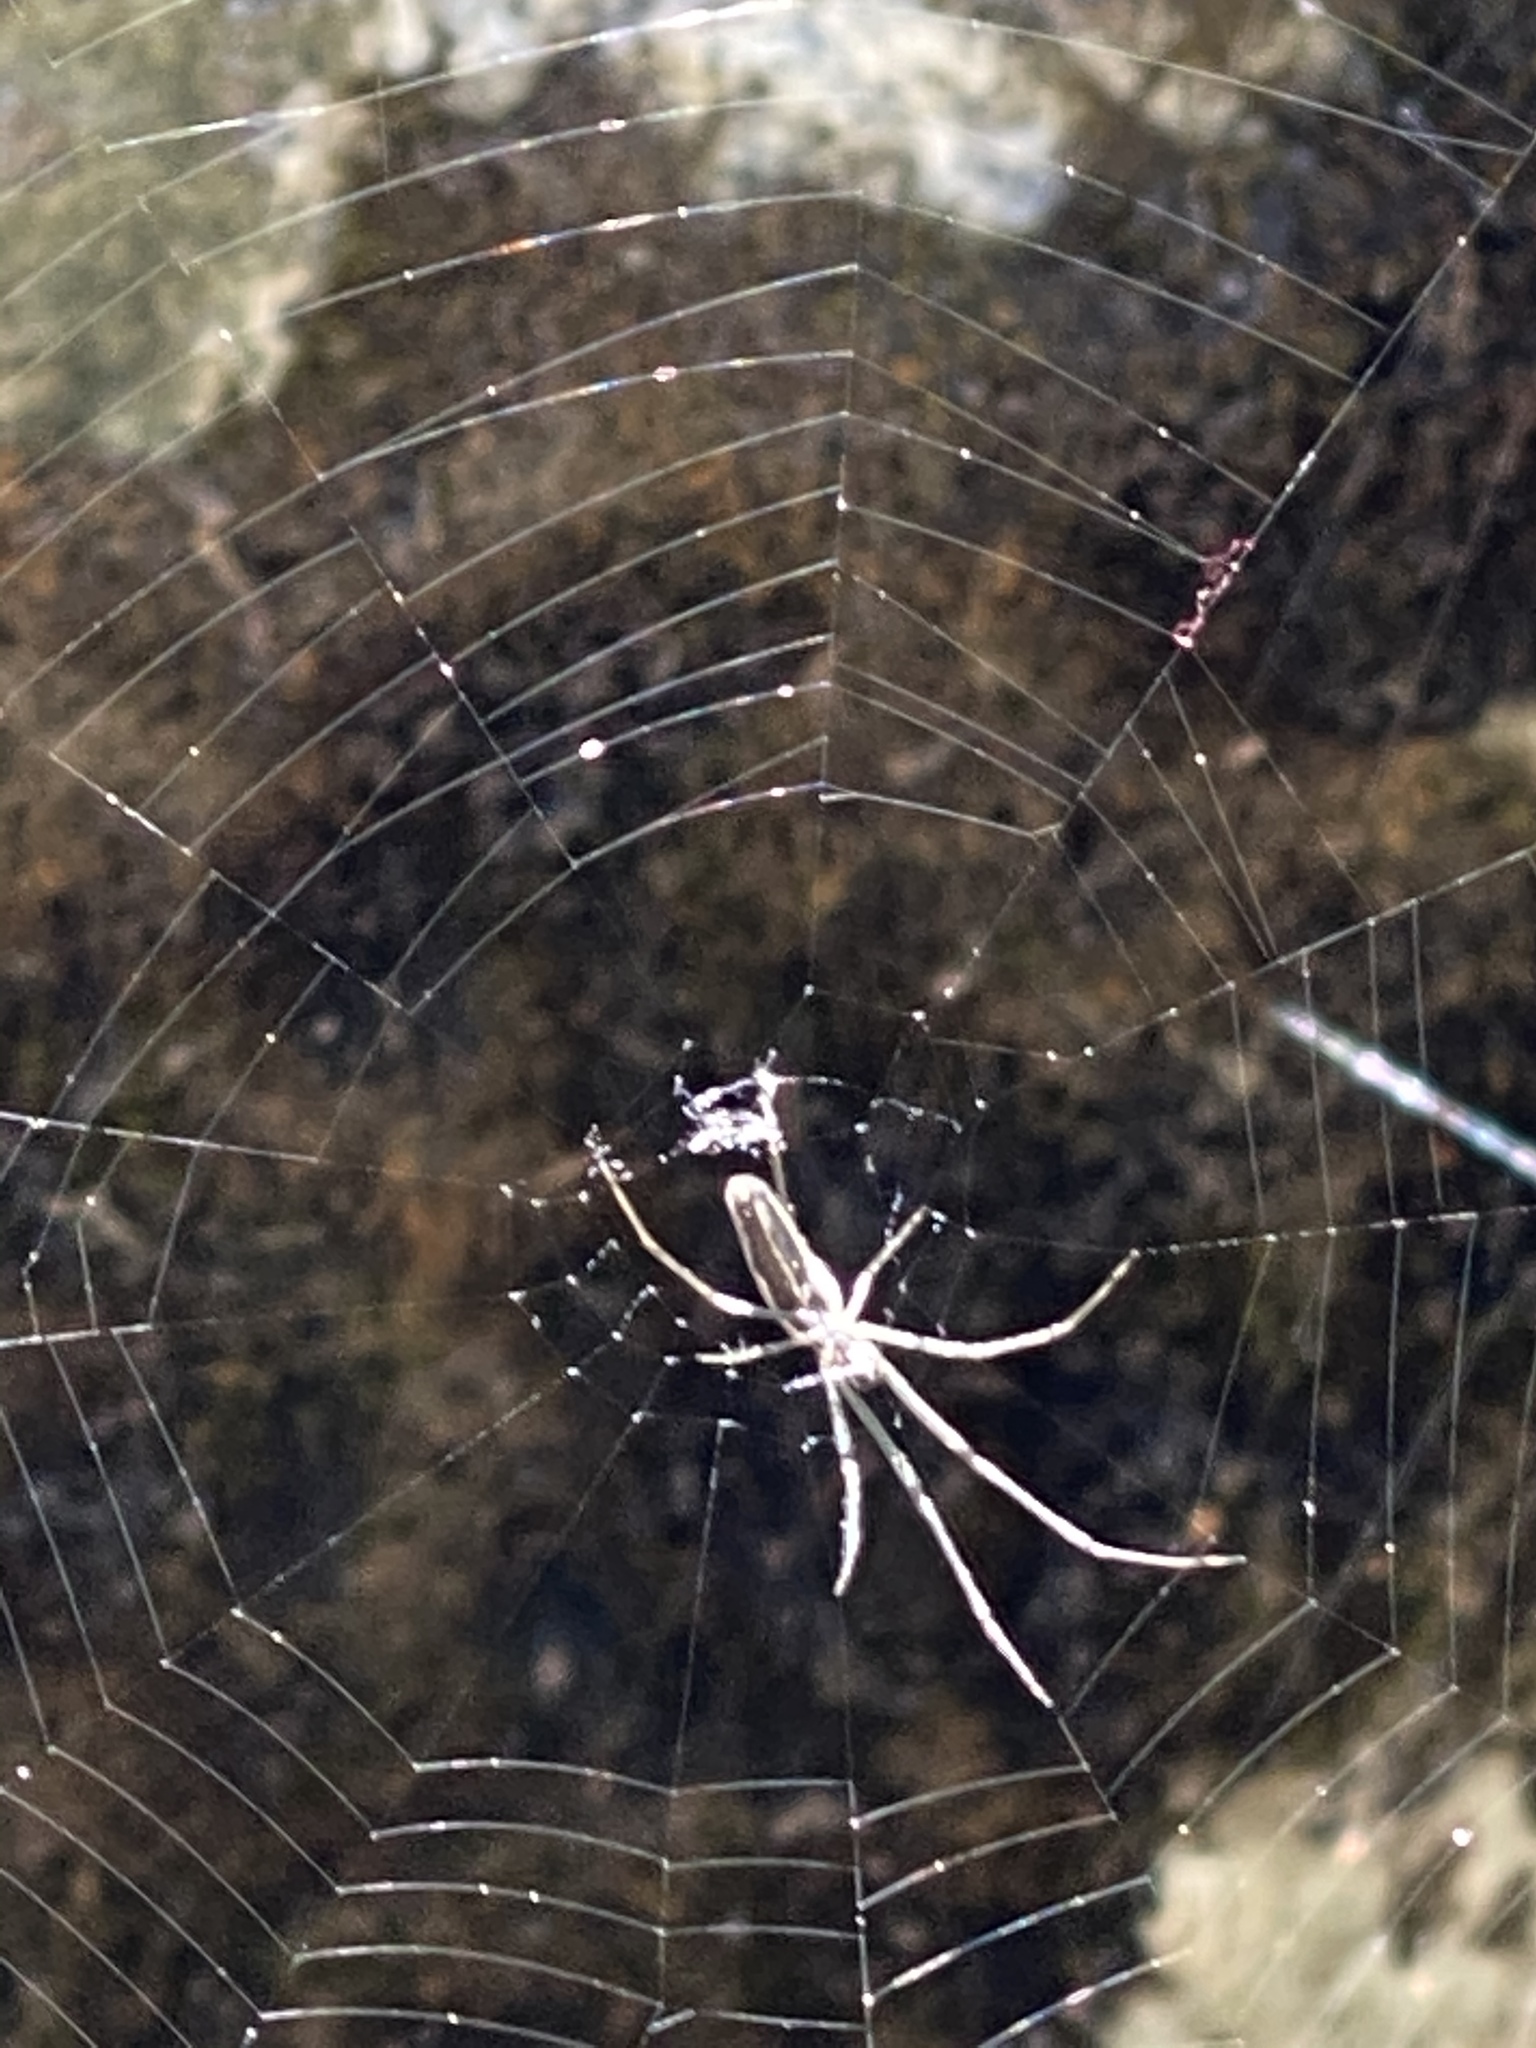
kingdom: Animalia
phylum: Arthropoda
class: Arachnida
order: Araneae
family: Tetragnathidae
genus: Tetragnatha
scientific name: Tetragnatha
